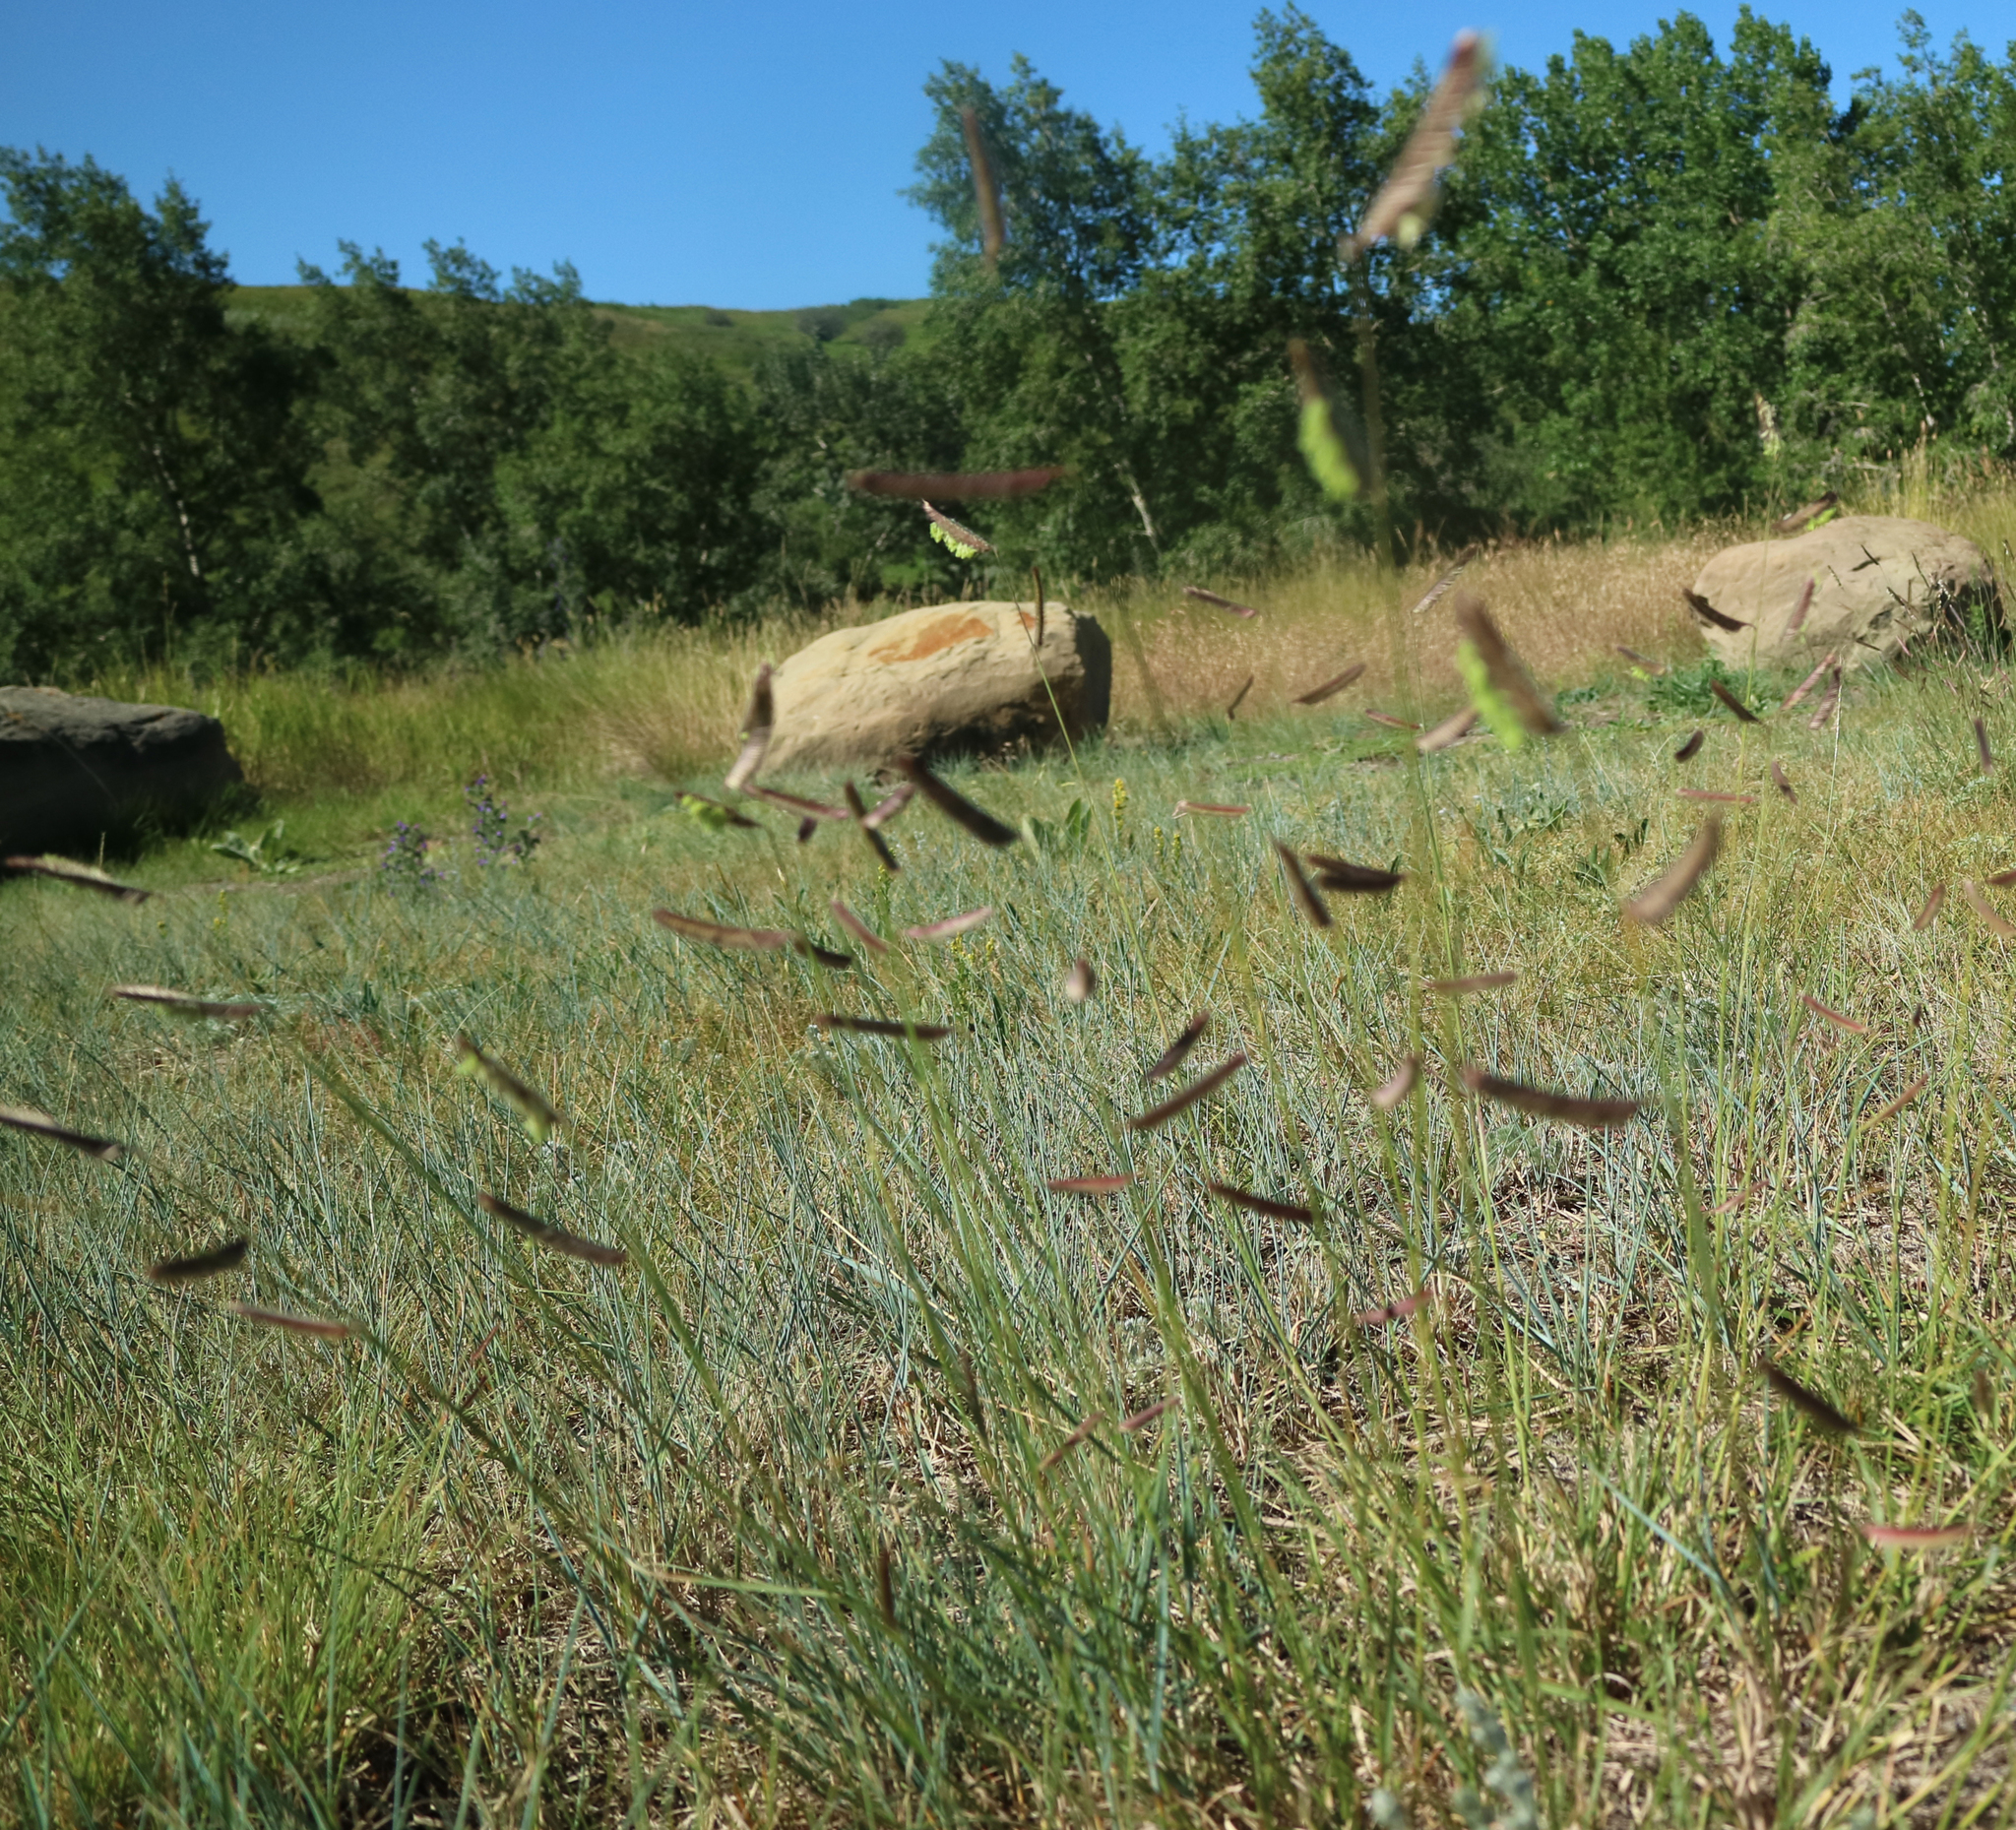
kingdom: Plantae
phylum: Tracheophyta
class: Liliopsida
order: Poales
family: Poaceae
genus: Bouteloua
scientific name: Bouteloua gracilis
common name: Blue grama
